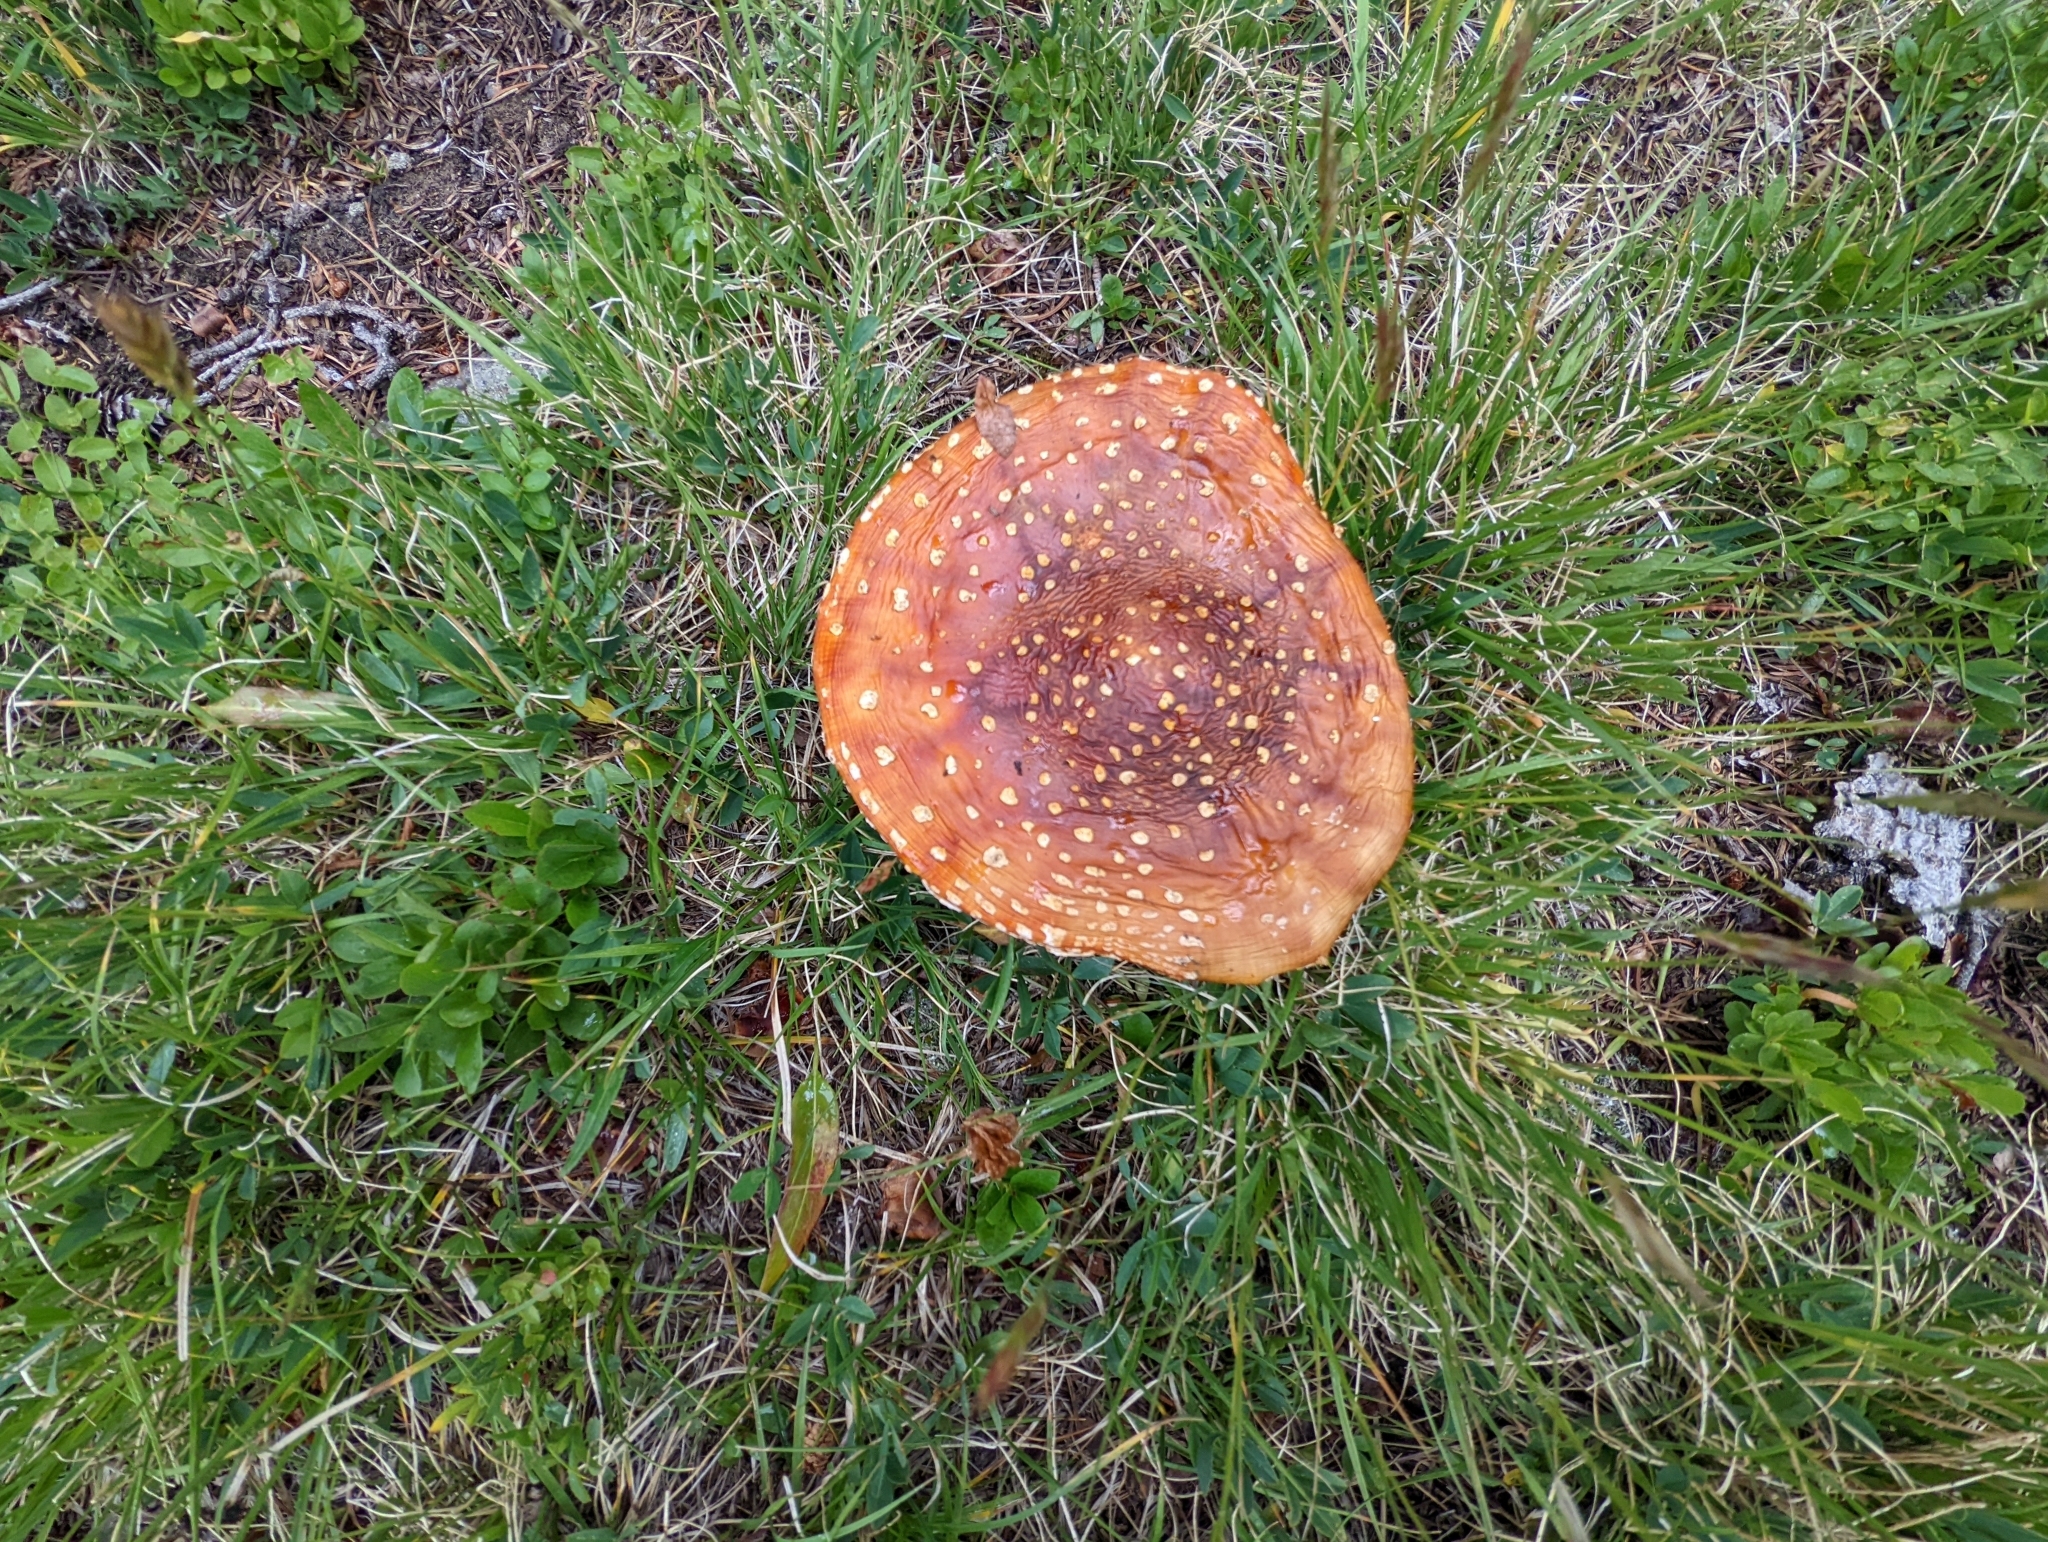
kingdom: Fungi
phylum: Basidiomycota
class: Agaricomycetes
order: Agaricales
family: Amanitaceae
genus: Amanita
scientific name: Amanita muscaria
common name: Fly agaric
